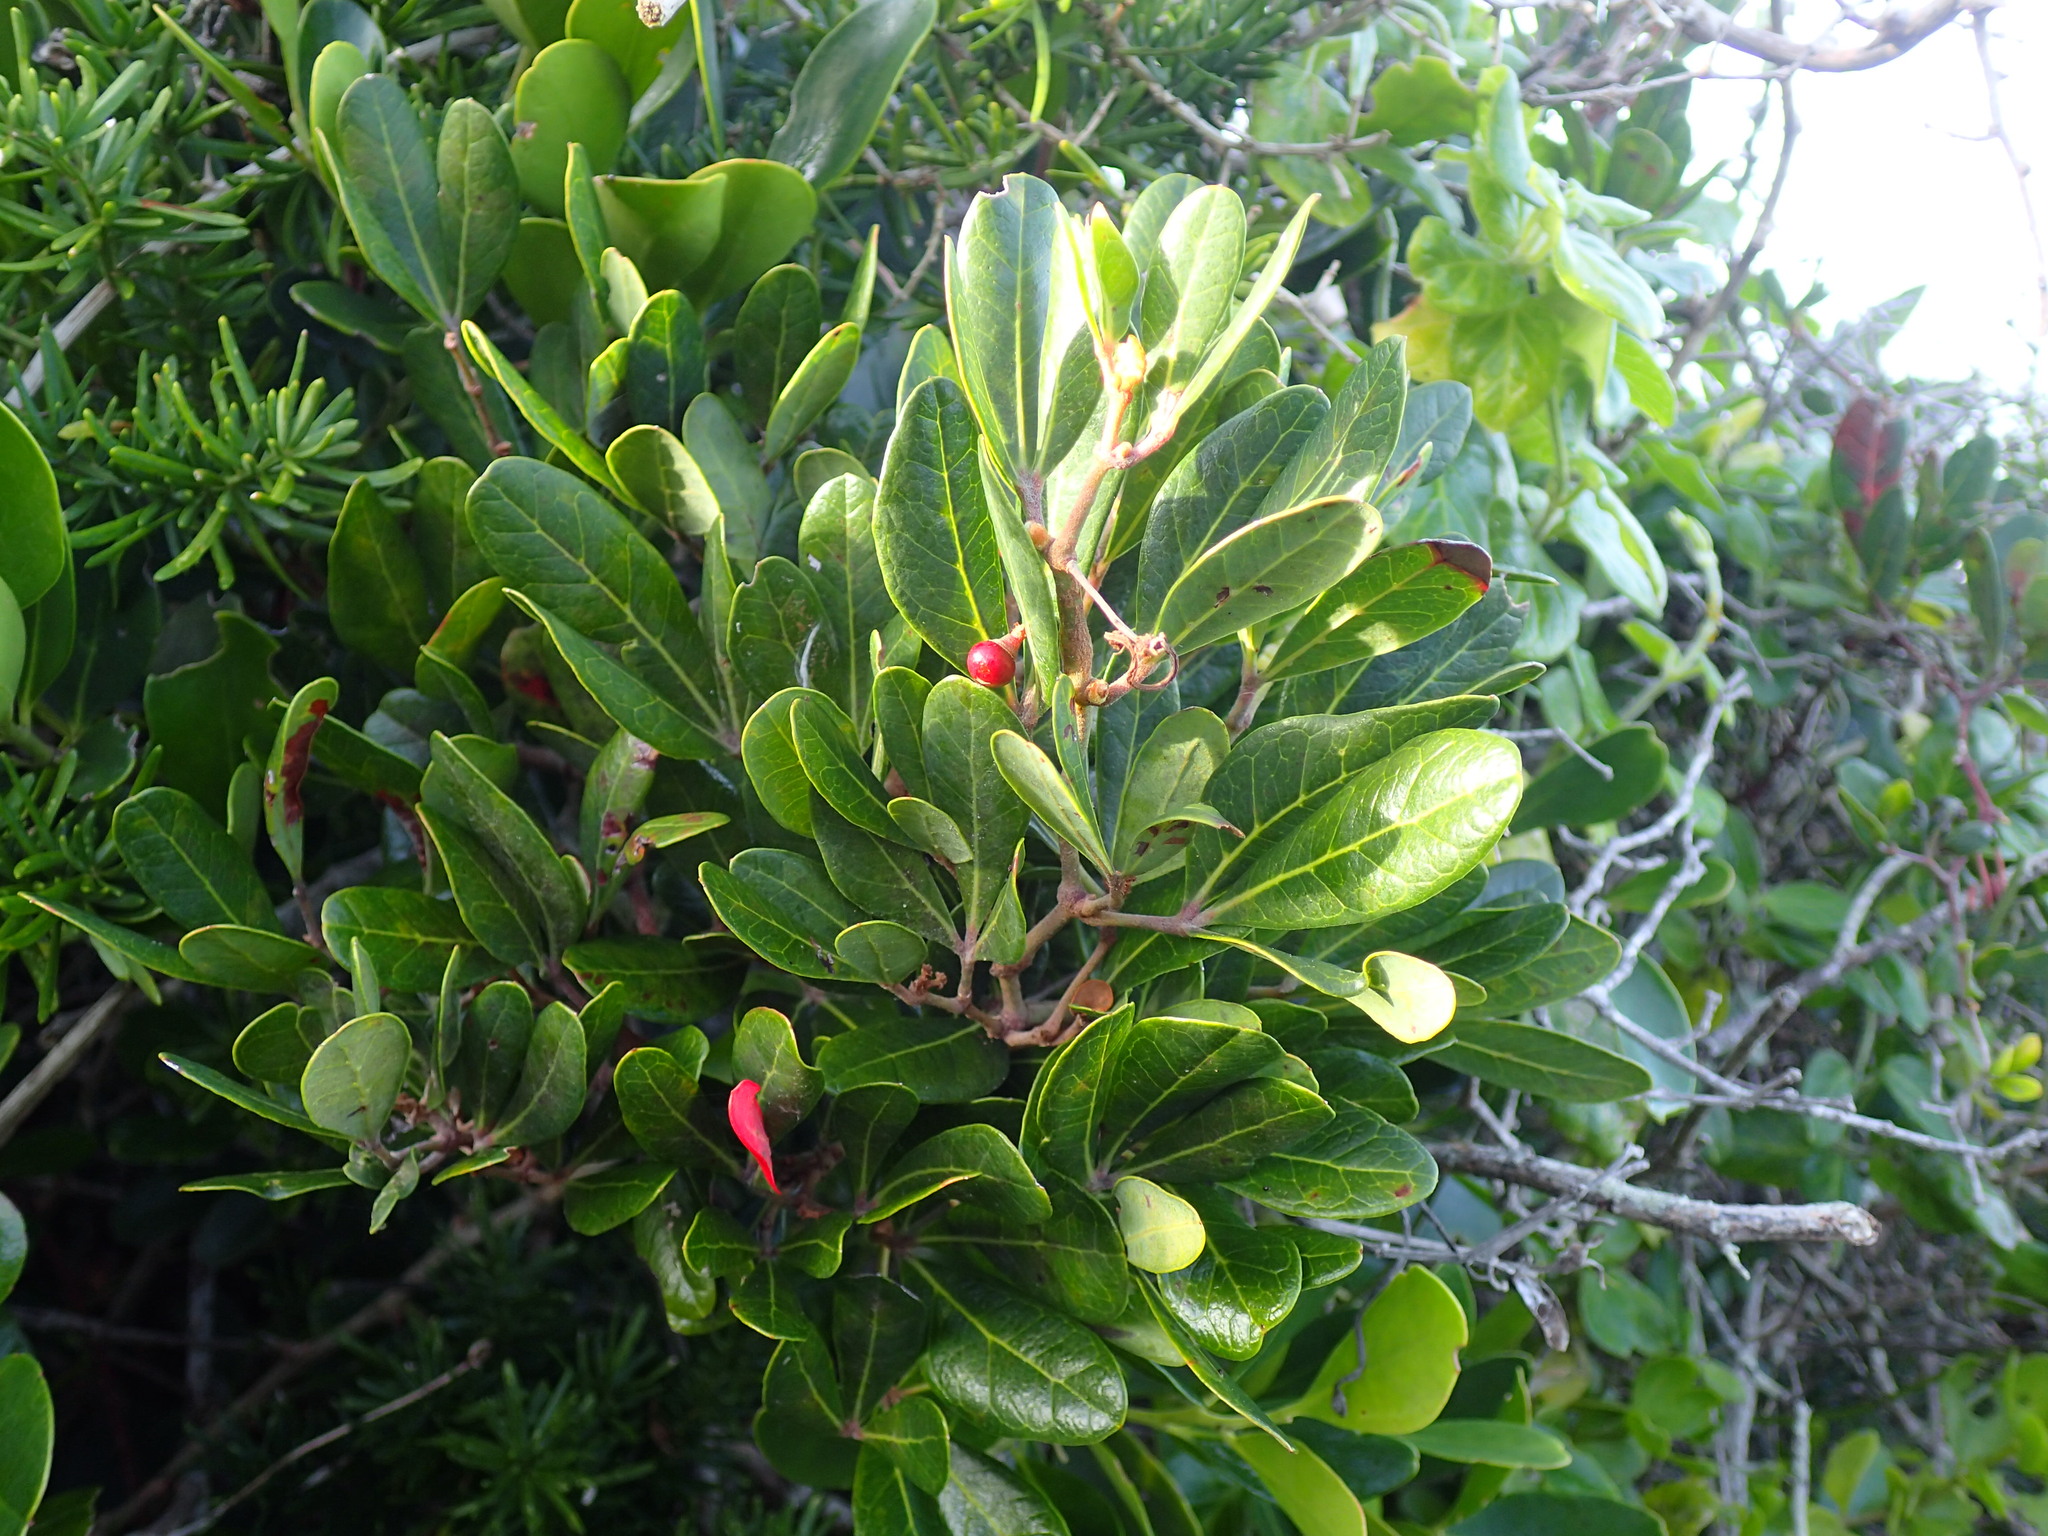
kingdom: Plantae
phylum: Tracheophyta
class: Magnoliopsida
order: Vitales
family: Vitaceae
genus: Rhoicissus
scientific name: Rhoicissus digitata
